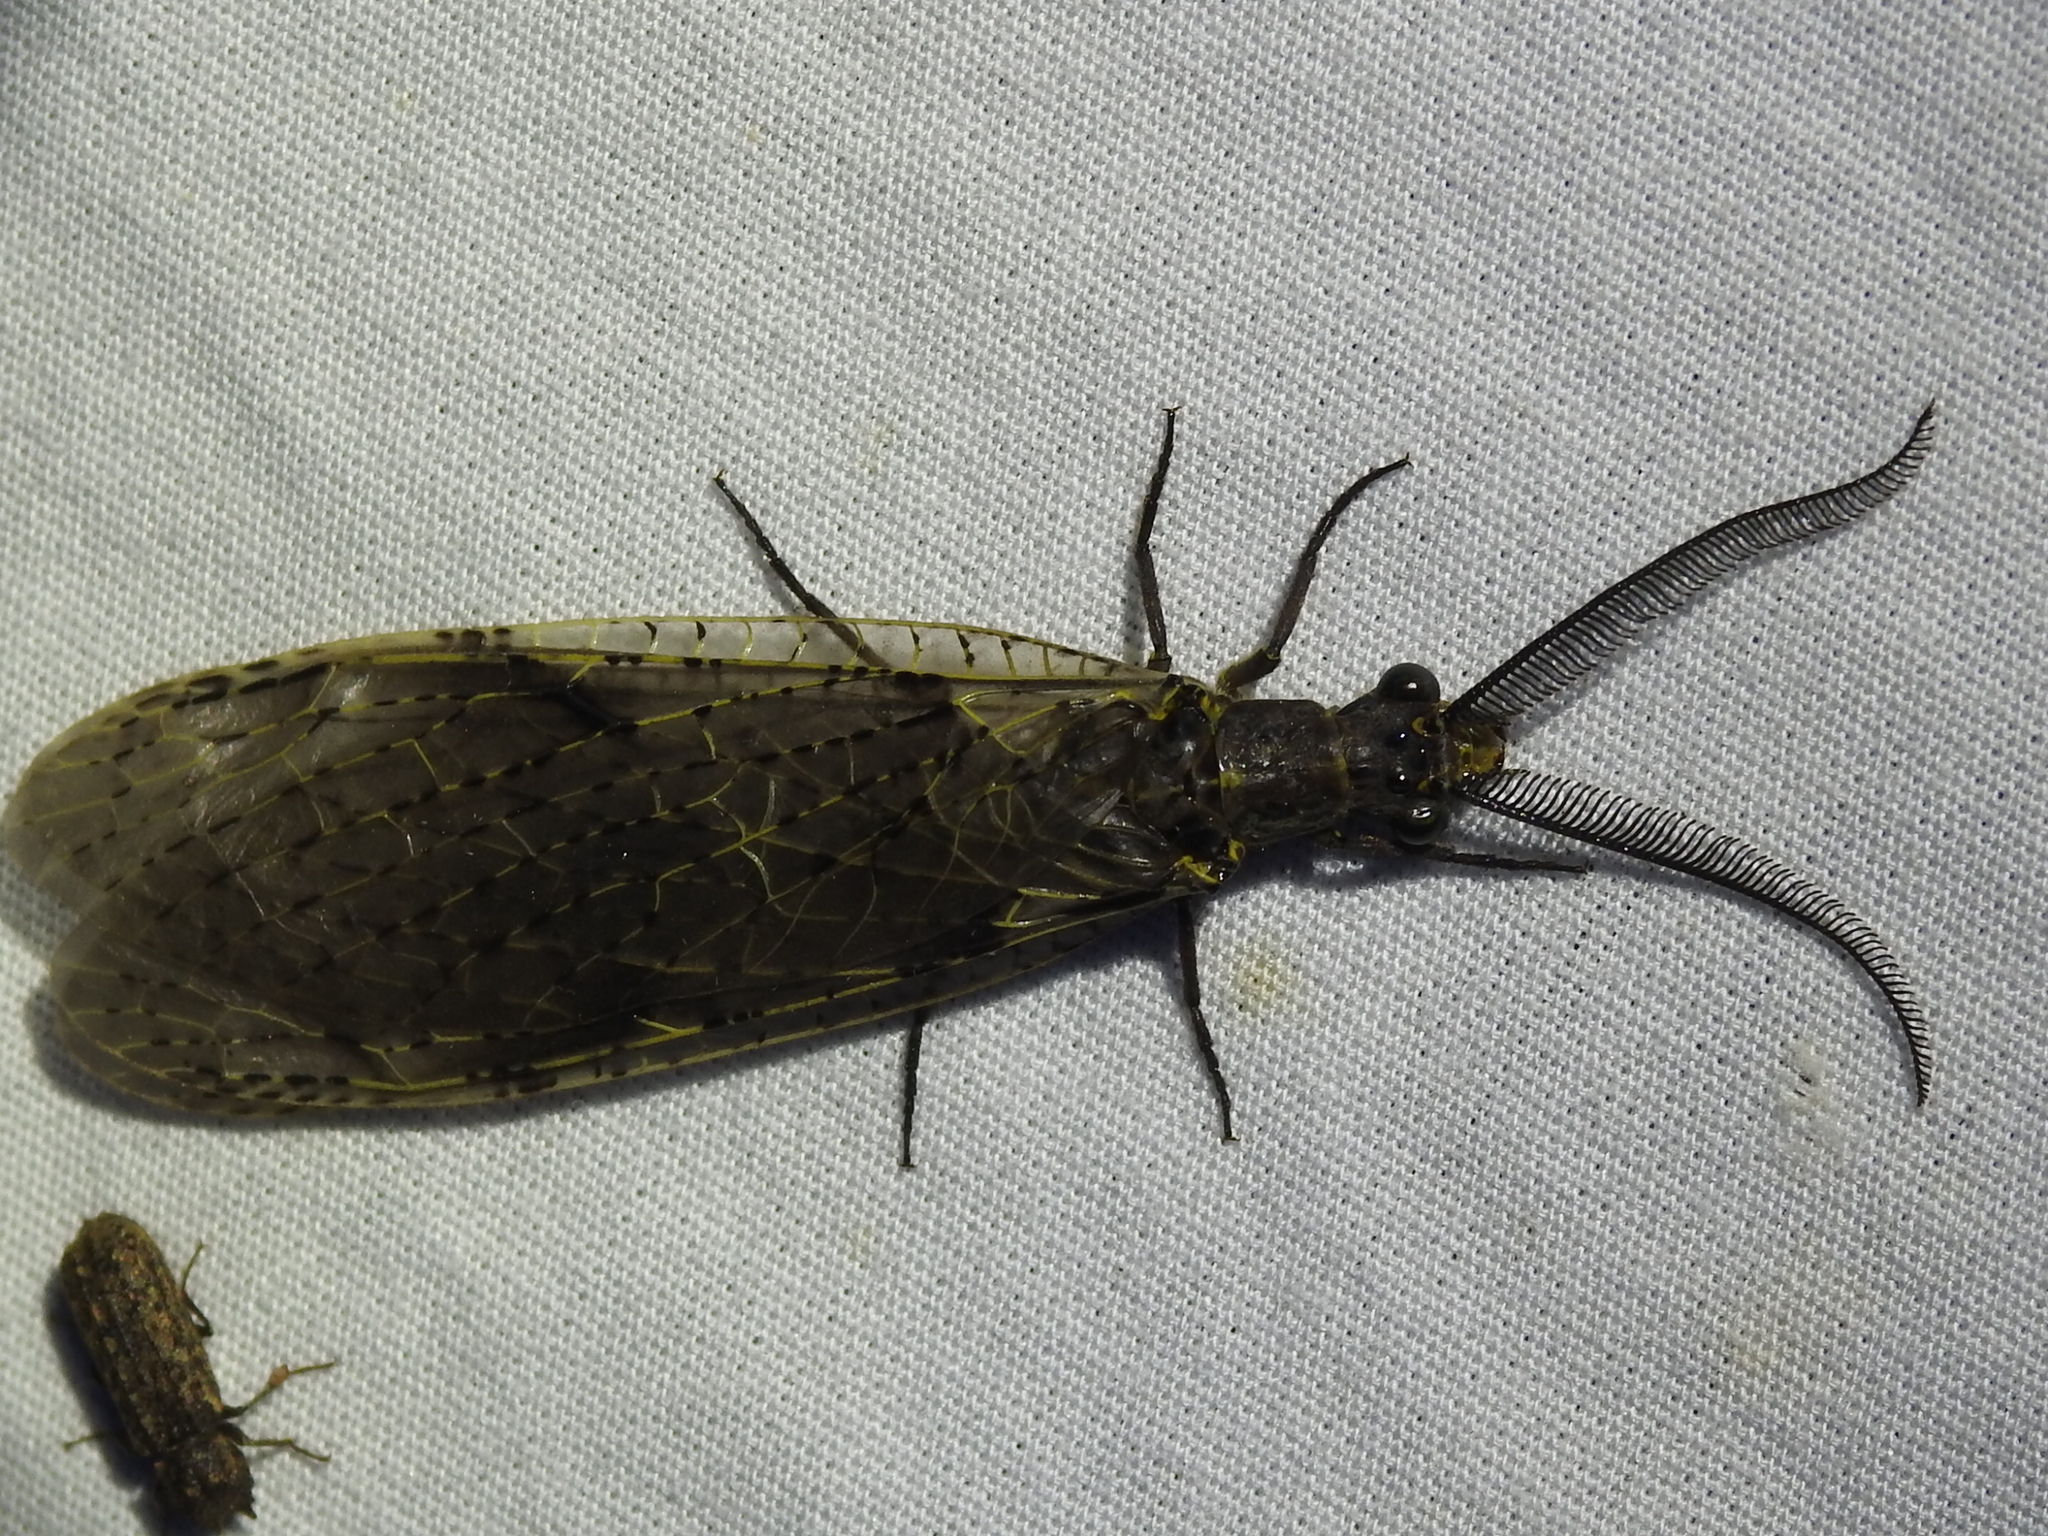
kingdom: Animalia
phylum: Arthropoda
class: Insecta
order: Megaloptera
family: Corydalidae
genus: Chauliodes
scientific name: Chauliodes rastricornis
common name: Spring fishfly
